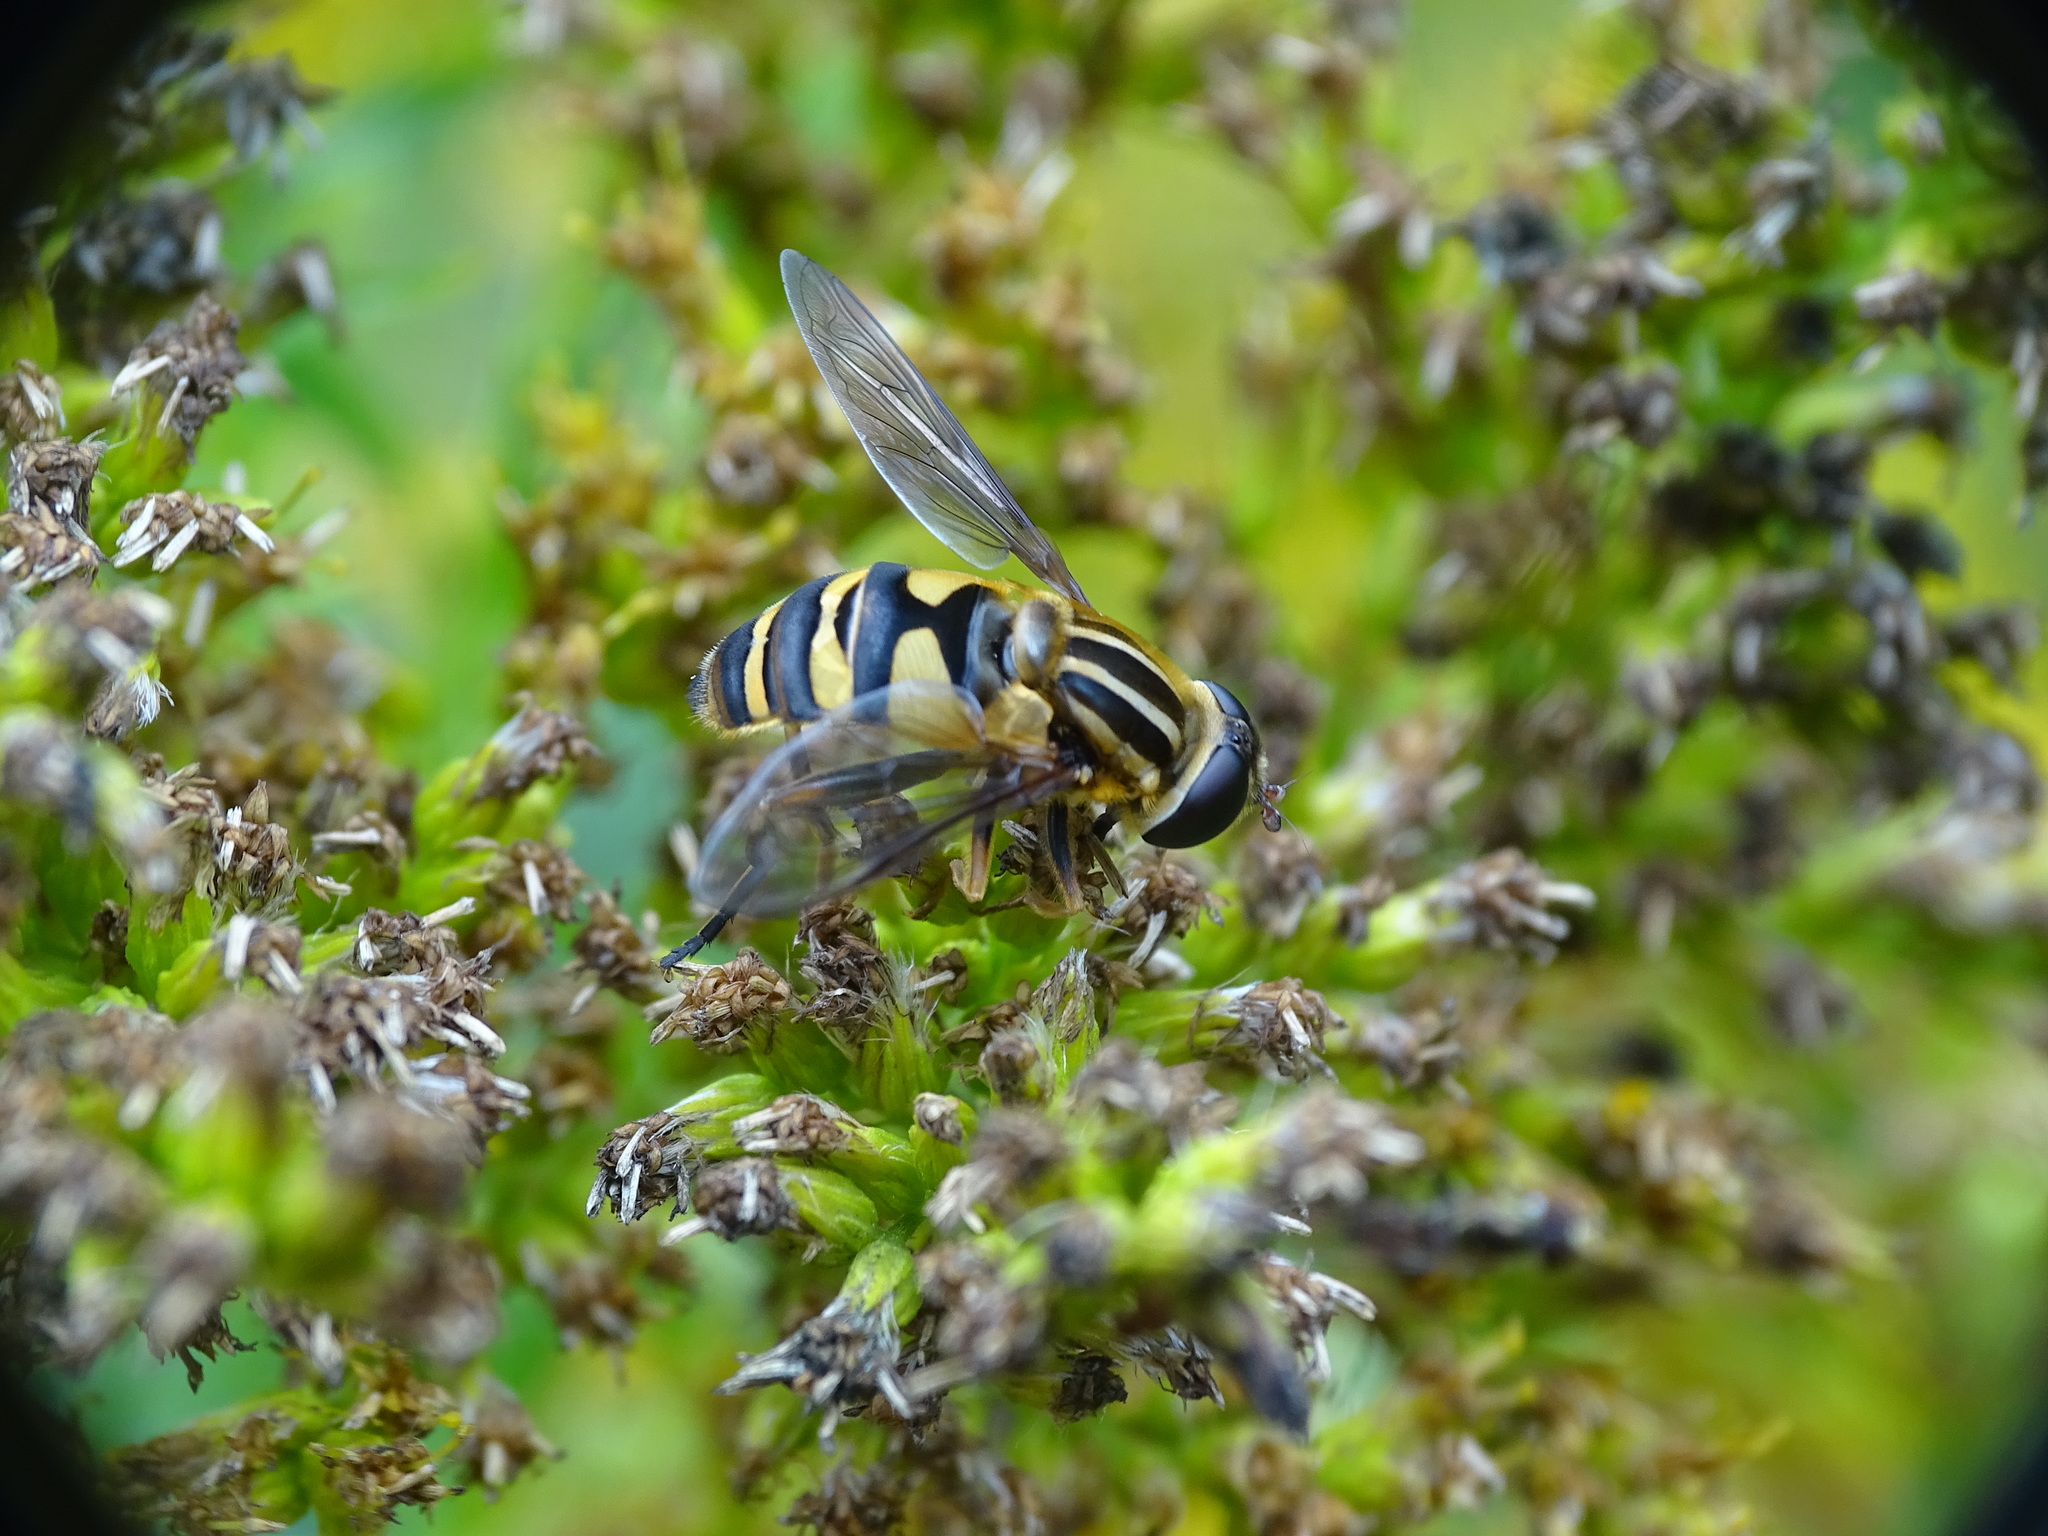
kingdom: Animalia
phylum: Arthropoda
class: Insecta
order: Diptera
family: Syrphidae
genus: Helophilus
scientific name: Helophilus fasciatus
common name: Narrow-headed marsh fly
